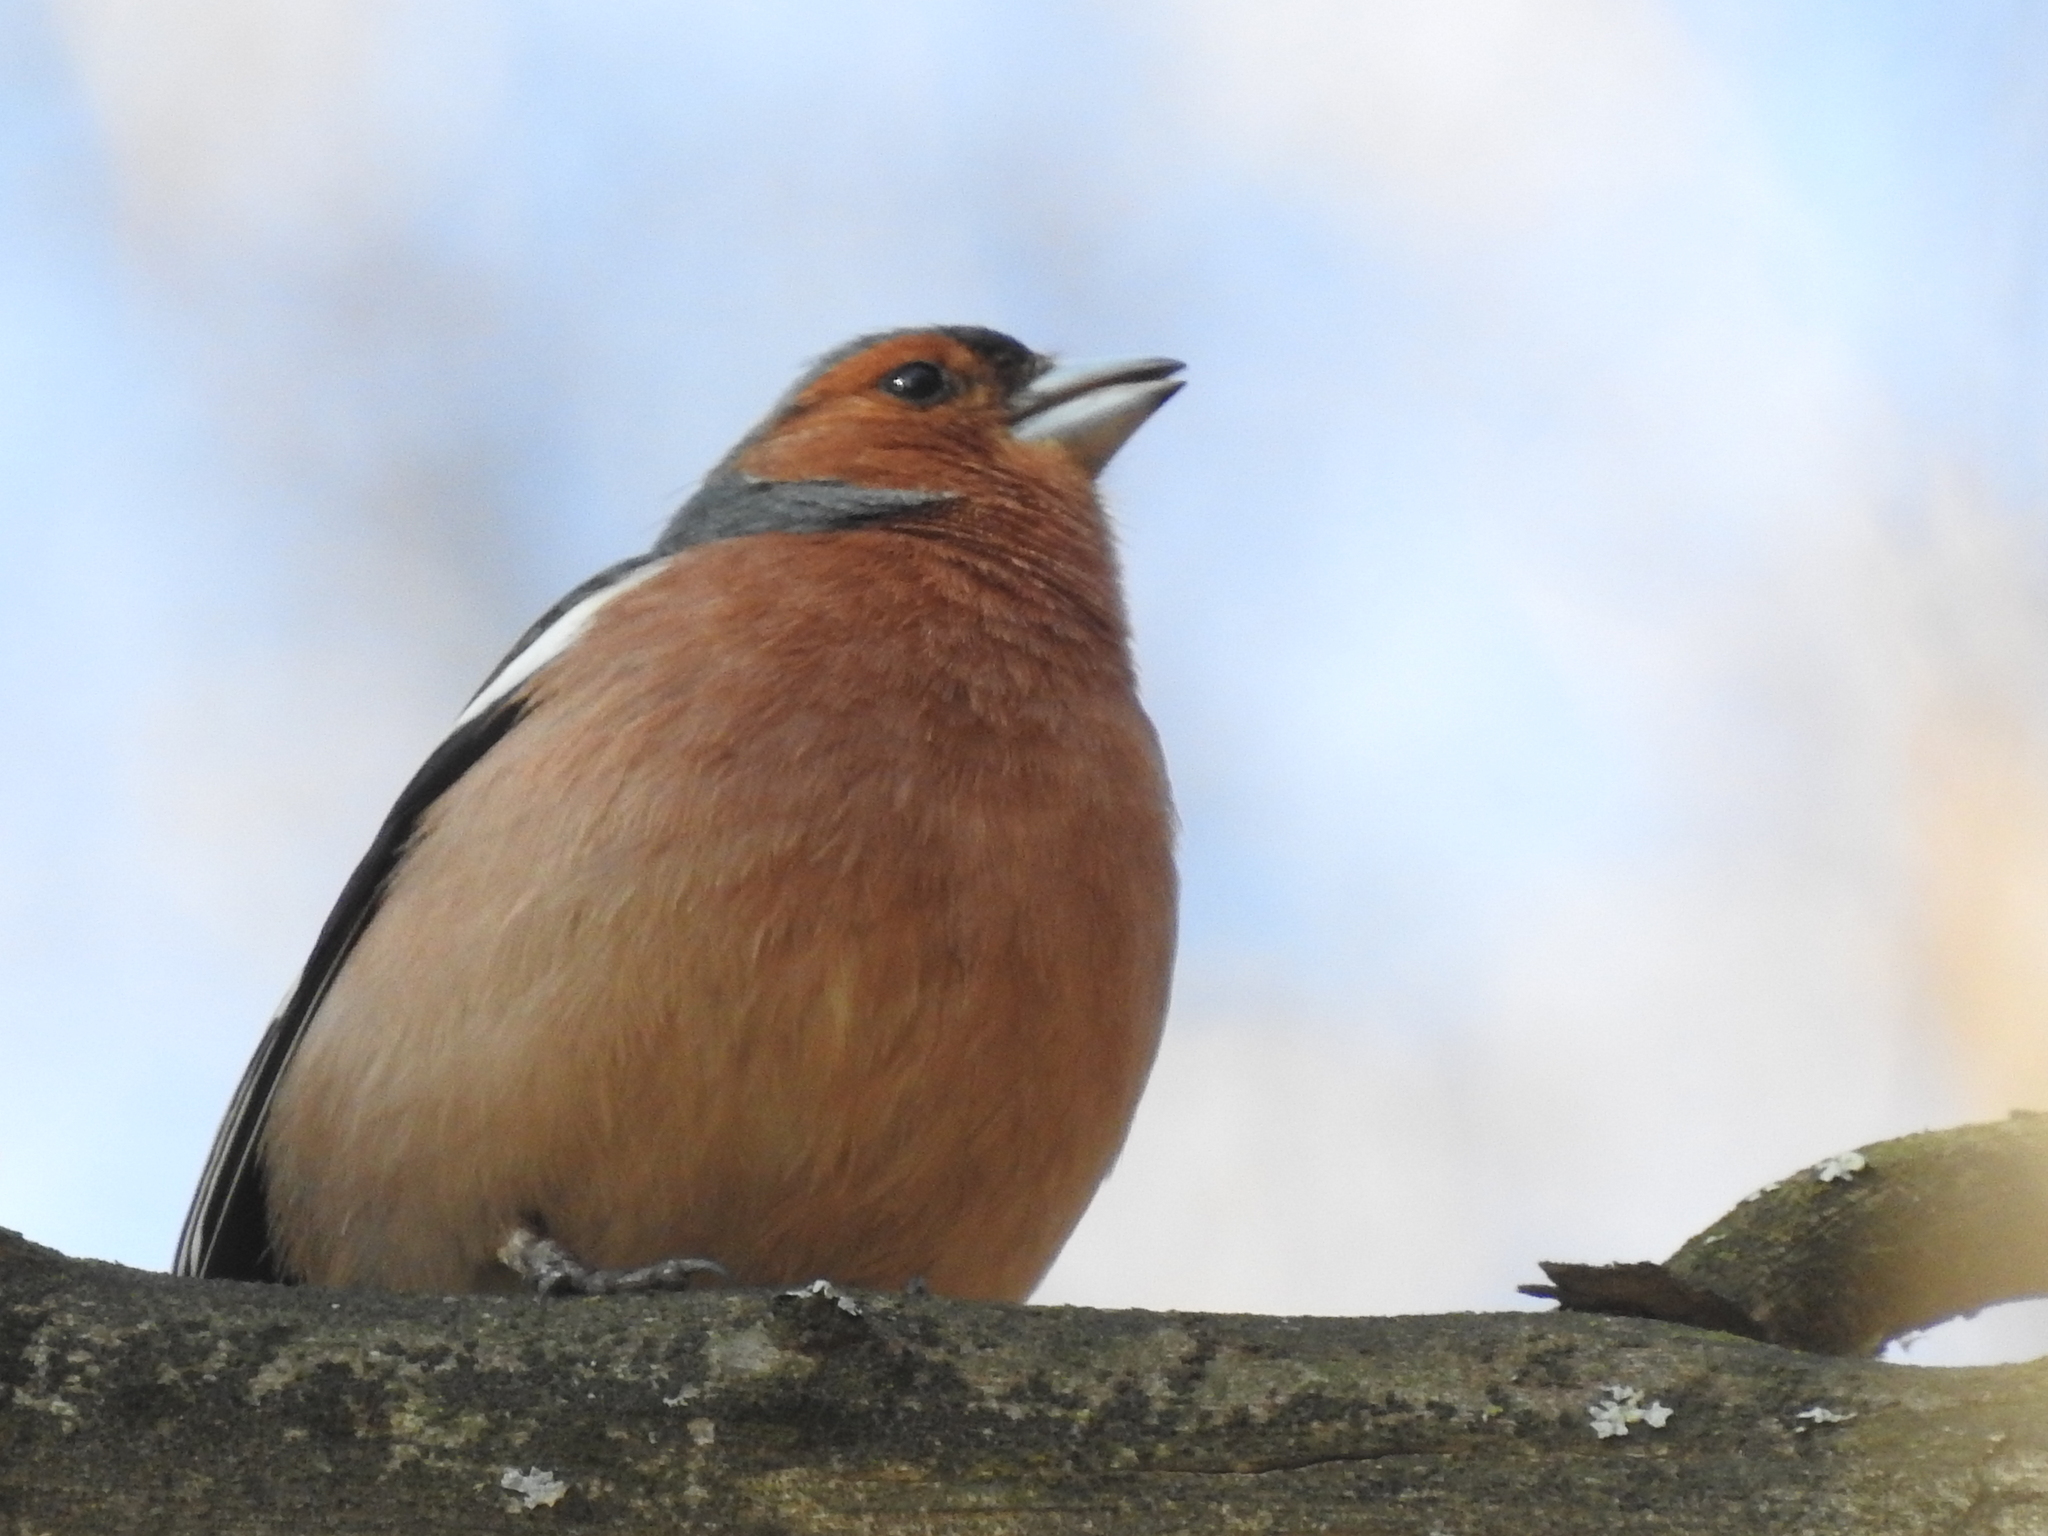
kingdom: Animalia
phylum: Chordata
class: Aves
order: Passeriformes
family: Fringillidae
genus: Fringilla
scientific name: Fringilla coelebs
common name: Common chaffinch
